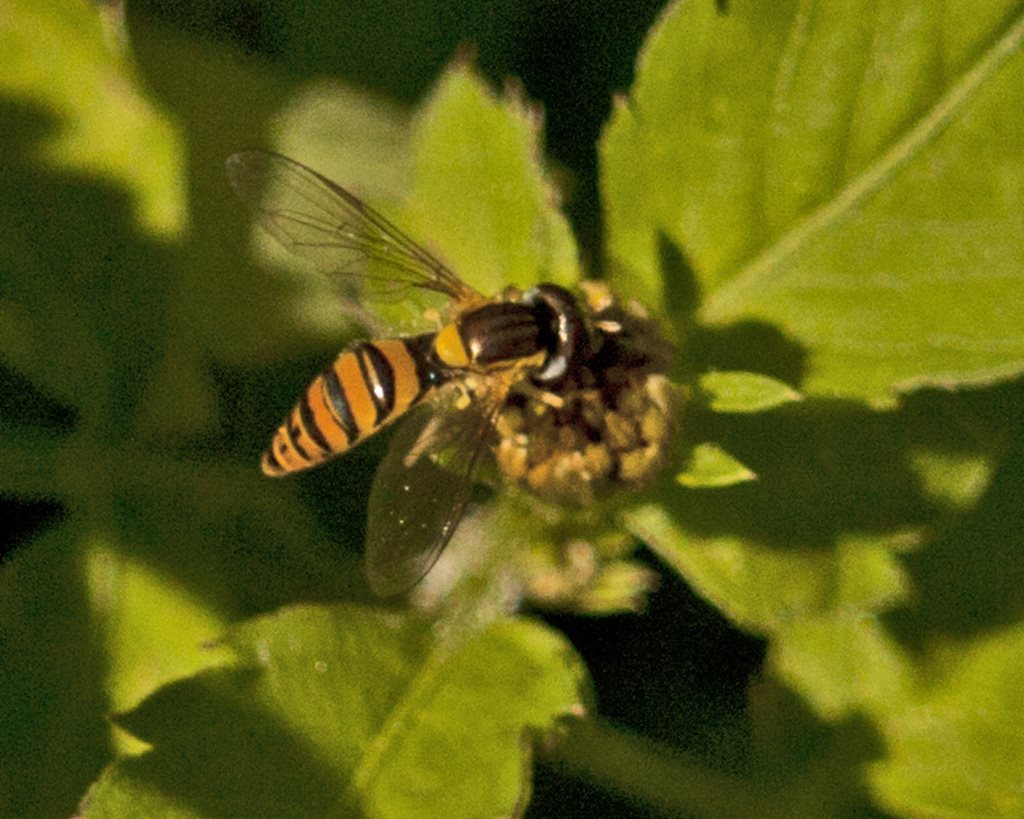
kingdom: Animalia
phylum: Arthropoda
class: Insecta
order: Diptera
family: Syrphidae
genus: Sphaerophoria
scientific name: Sphaerophoria macrogaster
